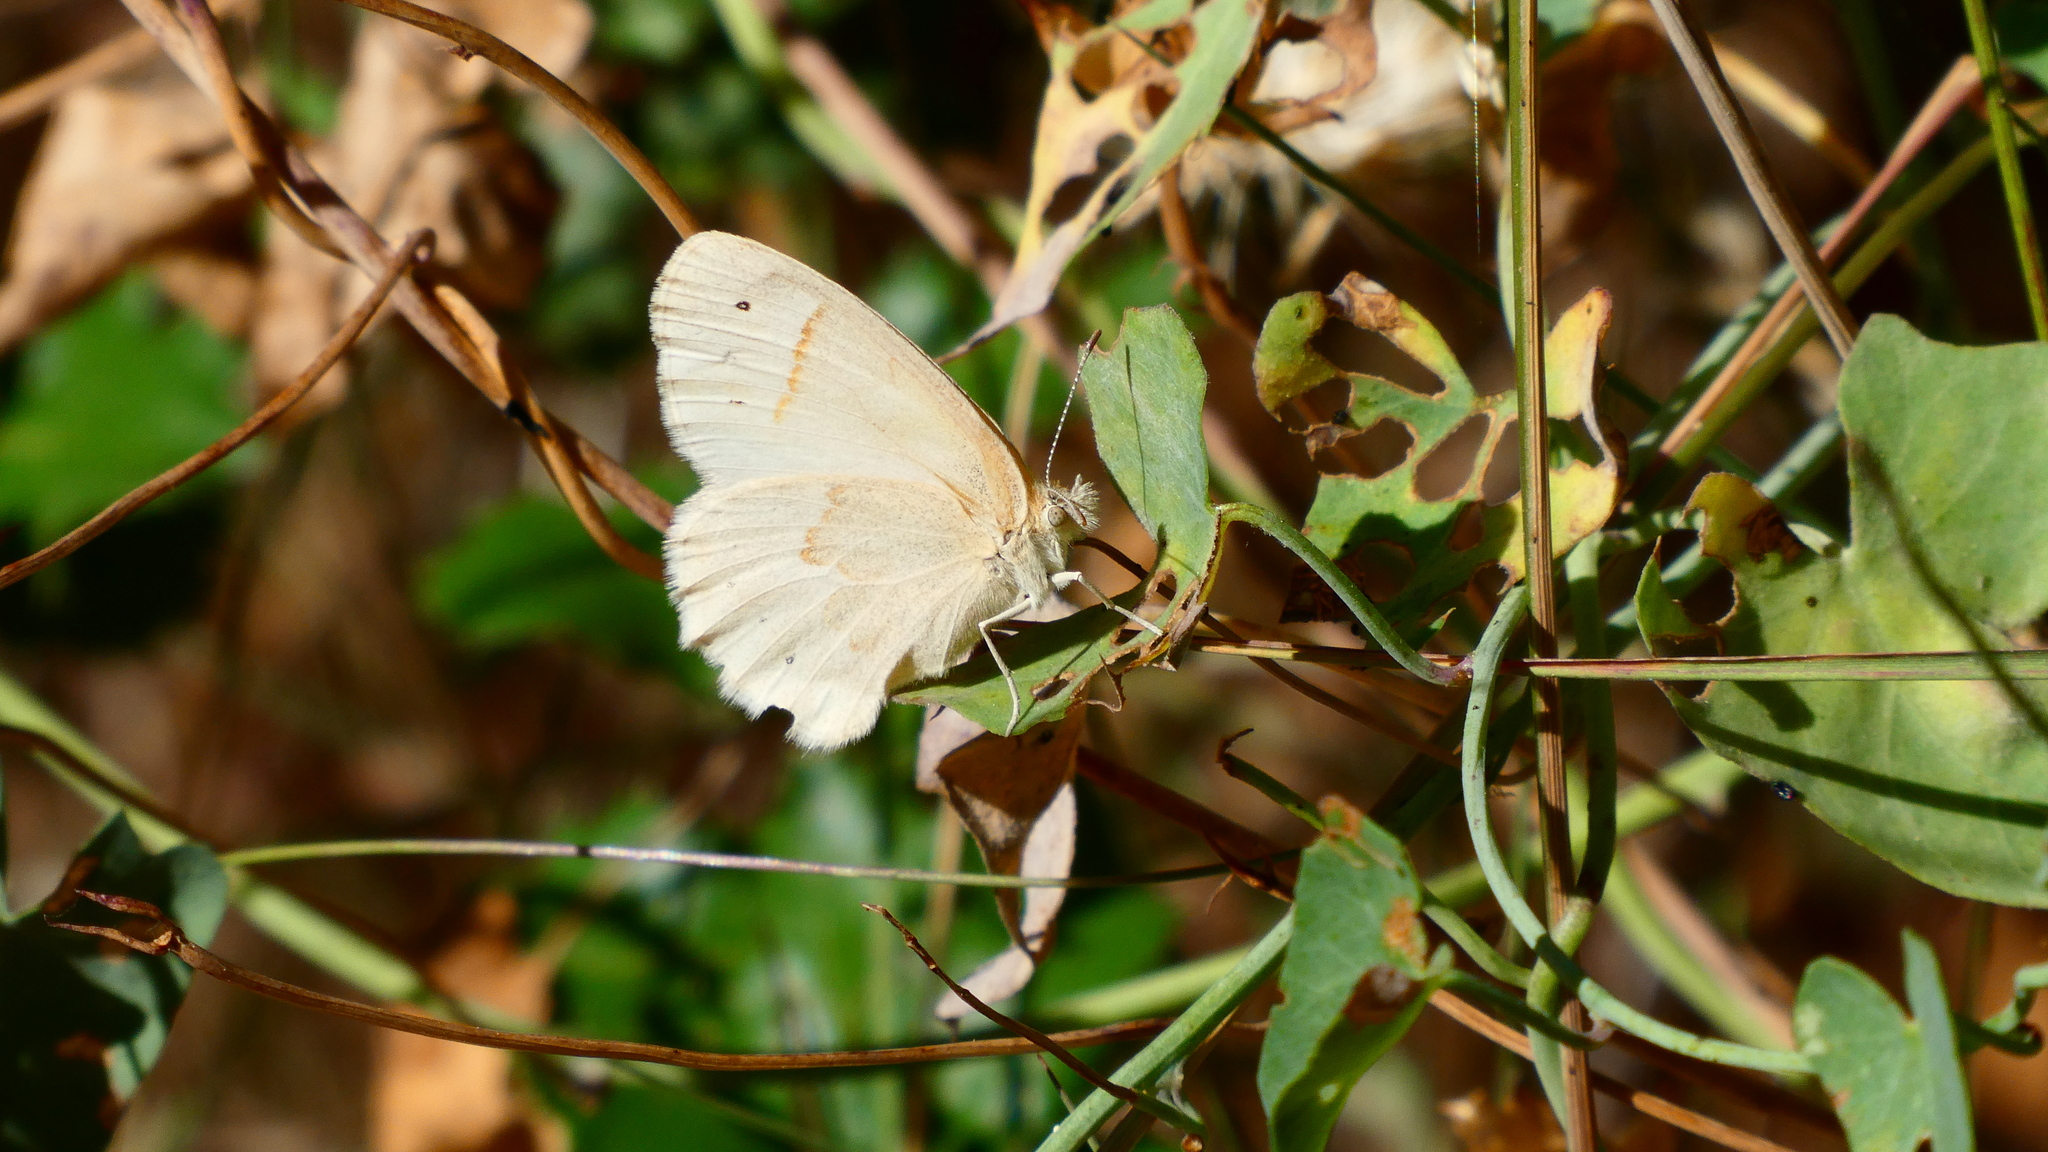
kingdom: Animalia
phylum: Arthropoda
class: Insecta
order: Lepidoptera
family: Nymphalidae
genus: Coenonympha
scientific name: Coenonympha california
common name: Common ringlet
